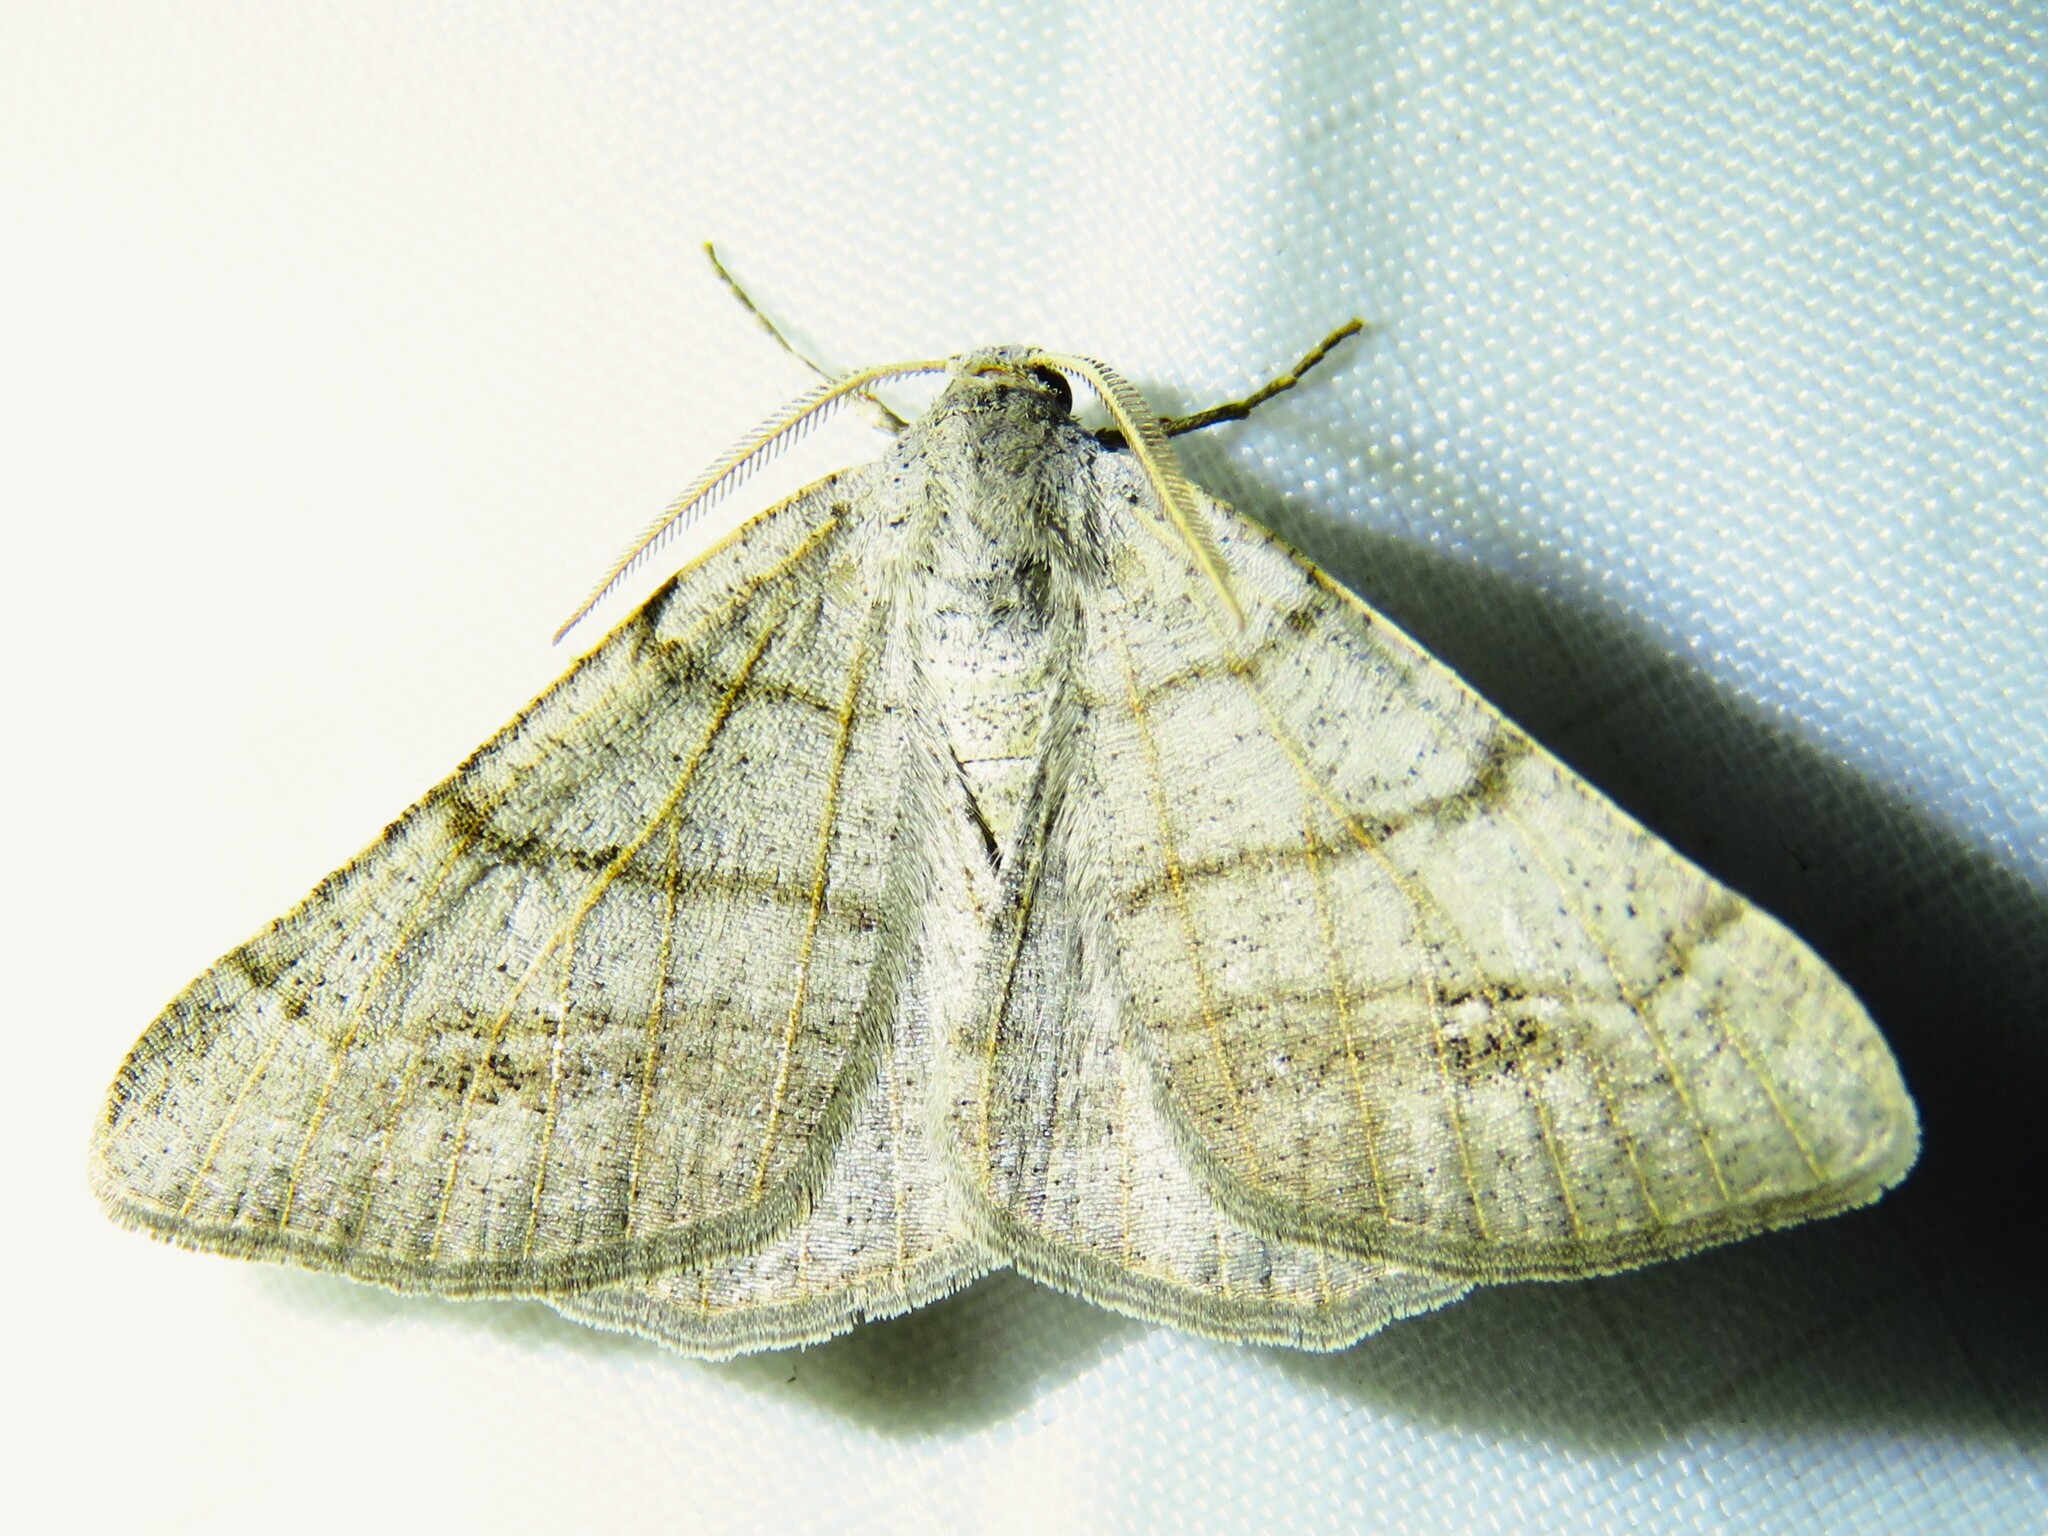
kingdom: Animalia
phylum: Arthropoda
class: Insecta
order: Lepidoptera
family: Geometridae
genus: Isturgia
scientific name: Isturgia dislocaria
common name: Pale-viened enconista
